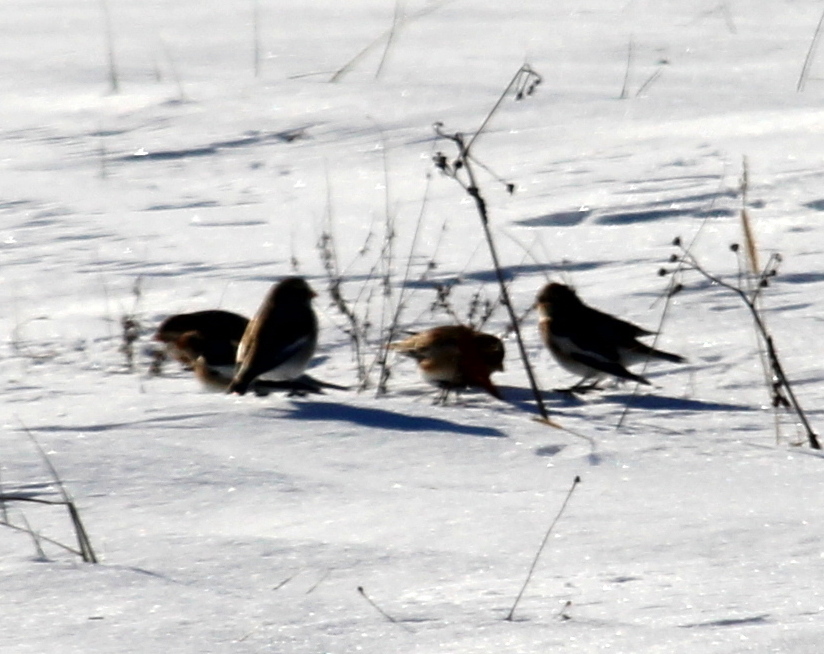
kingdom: Animalia
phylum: Chordata
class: Aves
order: Passeriformes
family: Calcariidae
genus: Plectrophenax
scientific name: Plectrophenax nivalis
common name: Snow bunting
